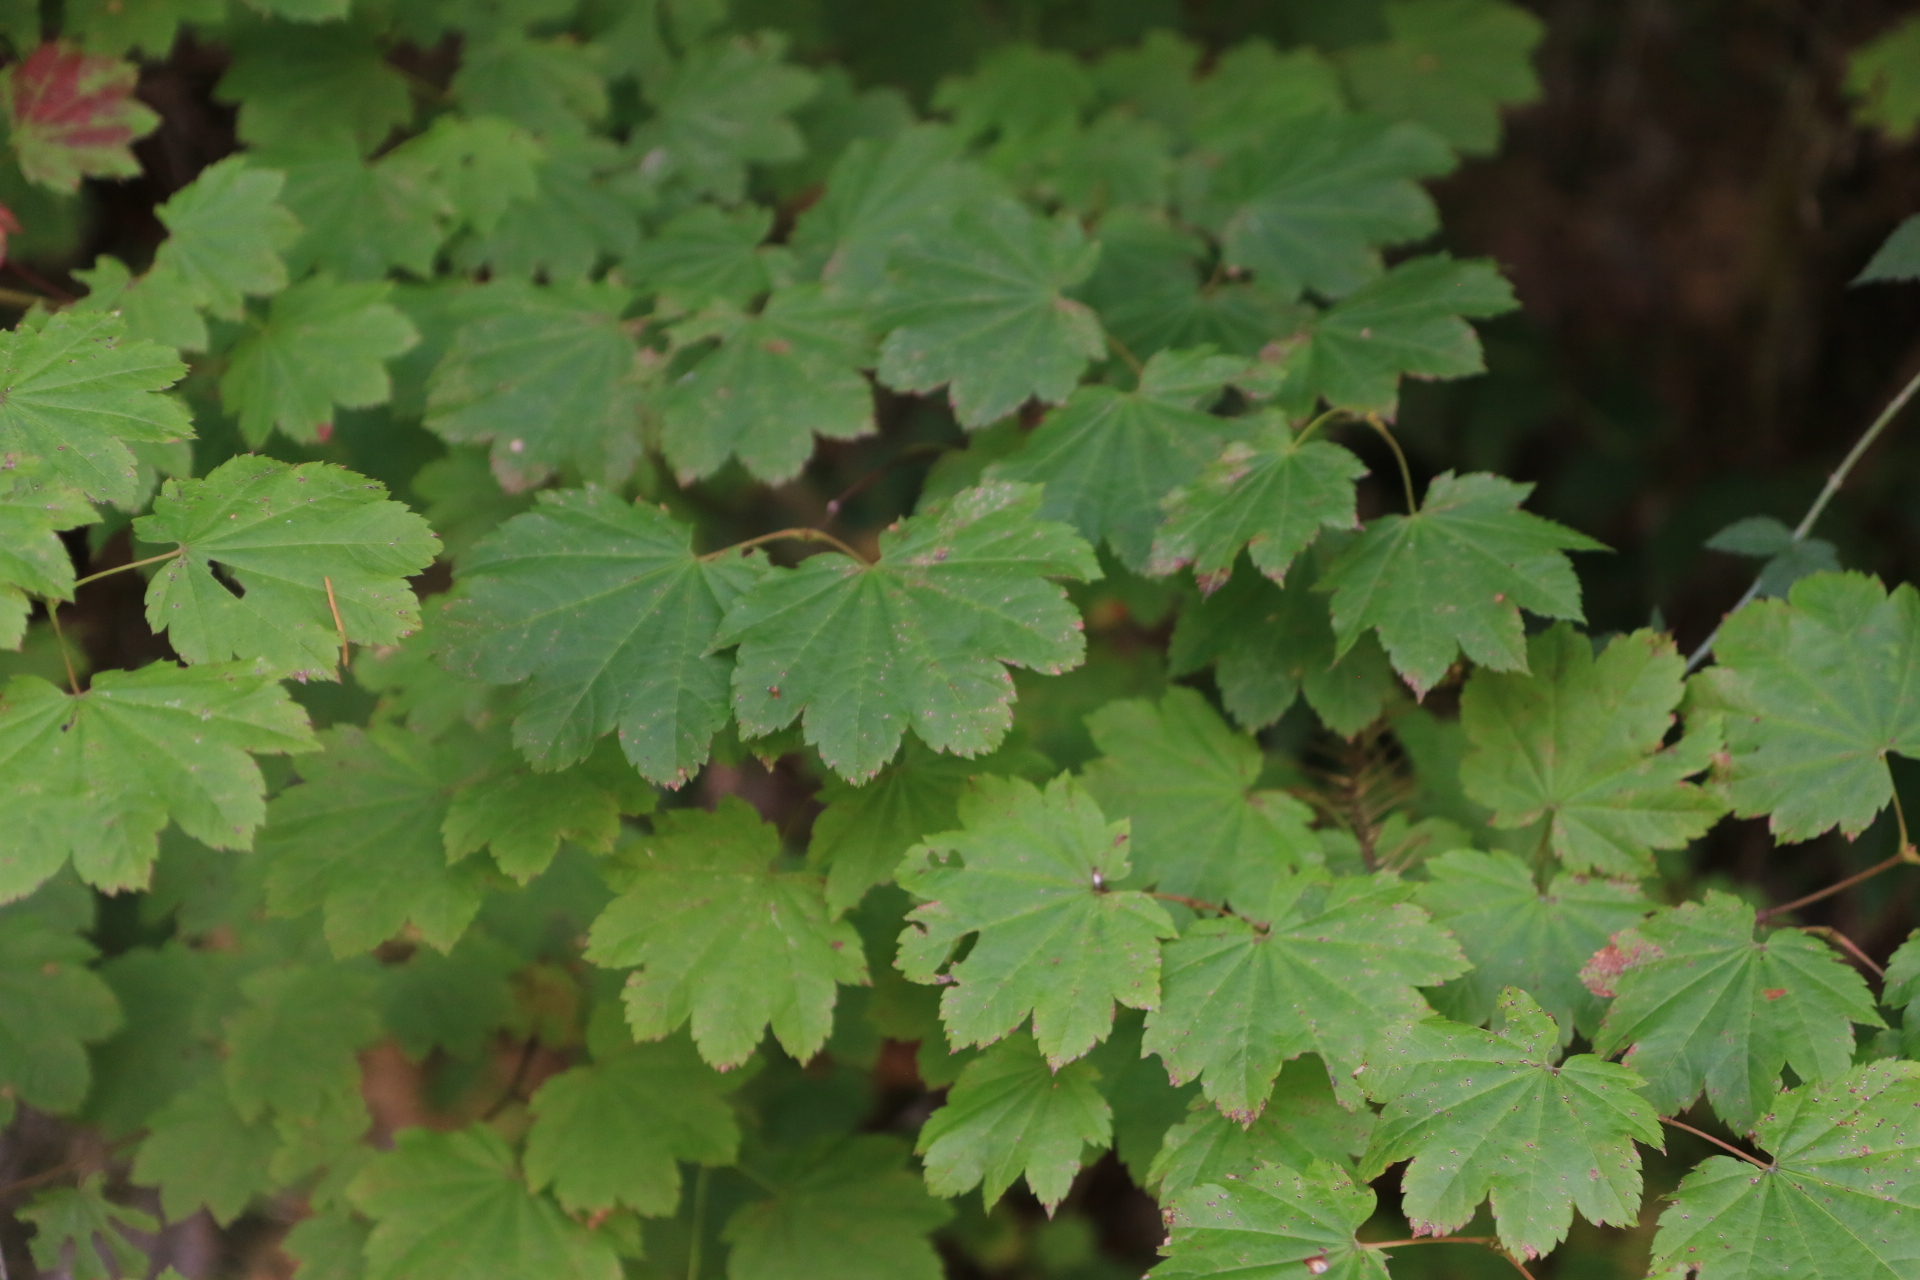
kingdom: Plantae
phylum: Tracheophyta
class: Magnoliopsida
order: Sapindales
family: Sapindaceae
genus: Acer
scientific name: Acer circinatum
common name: Vine maple
